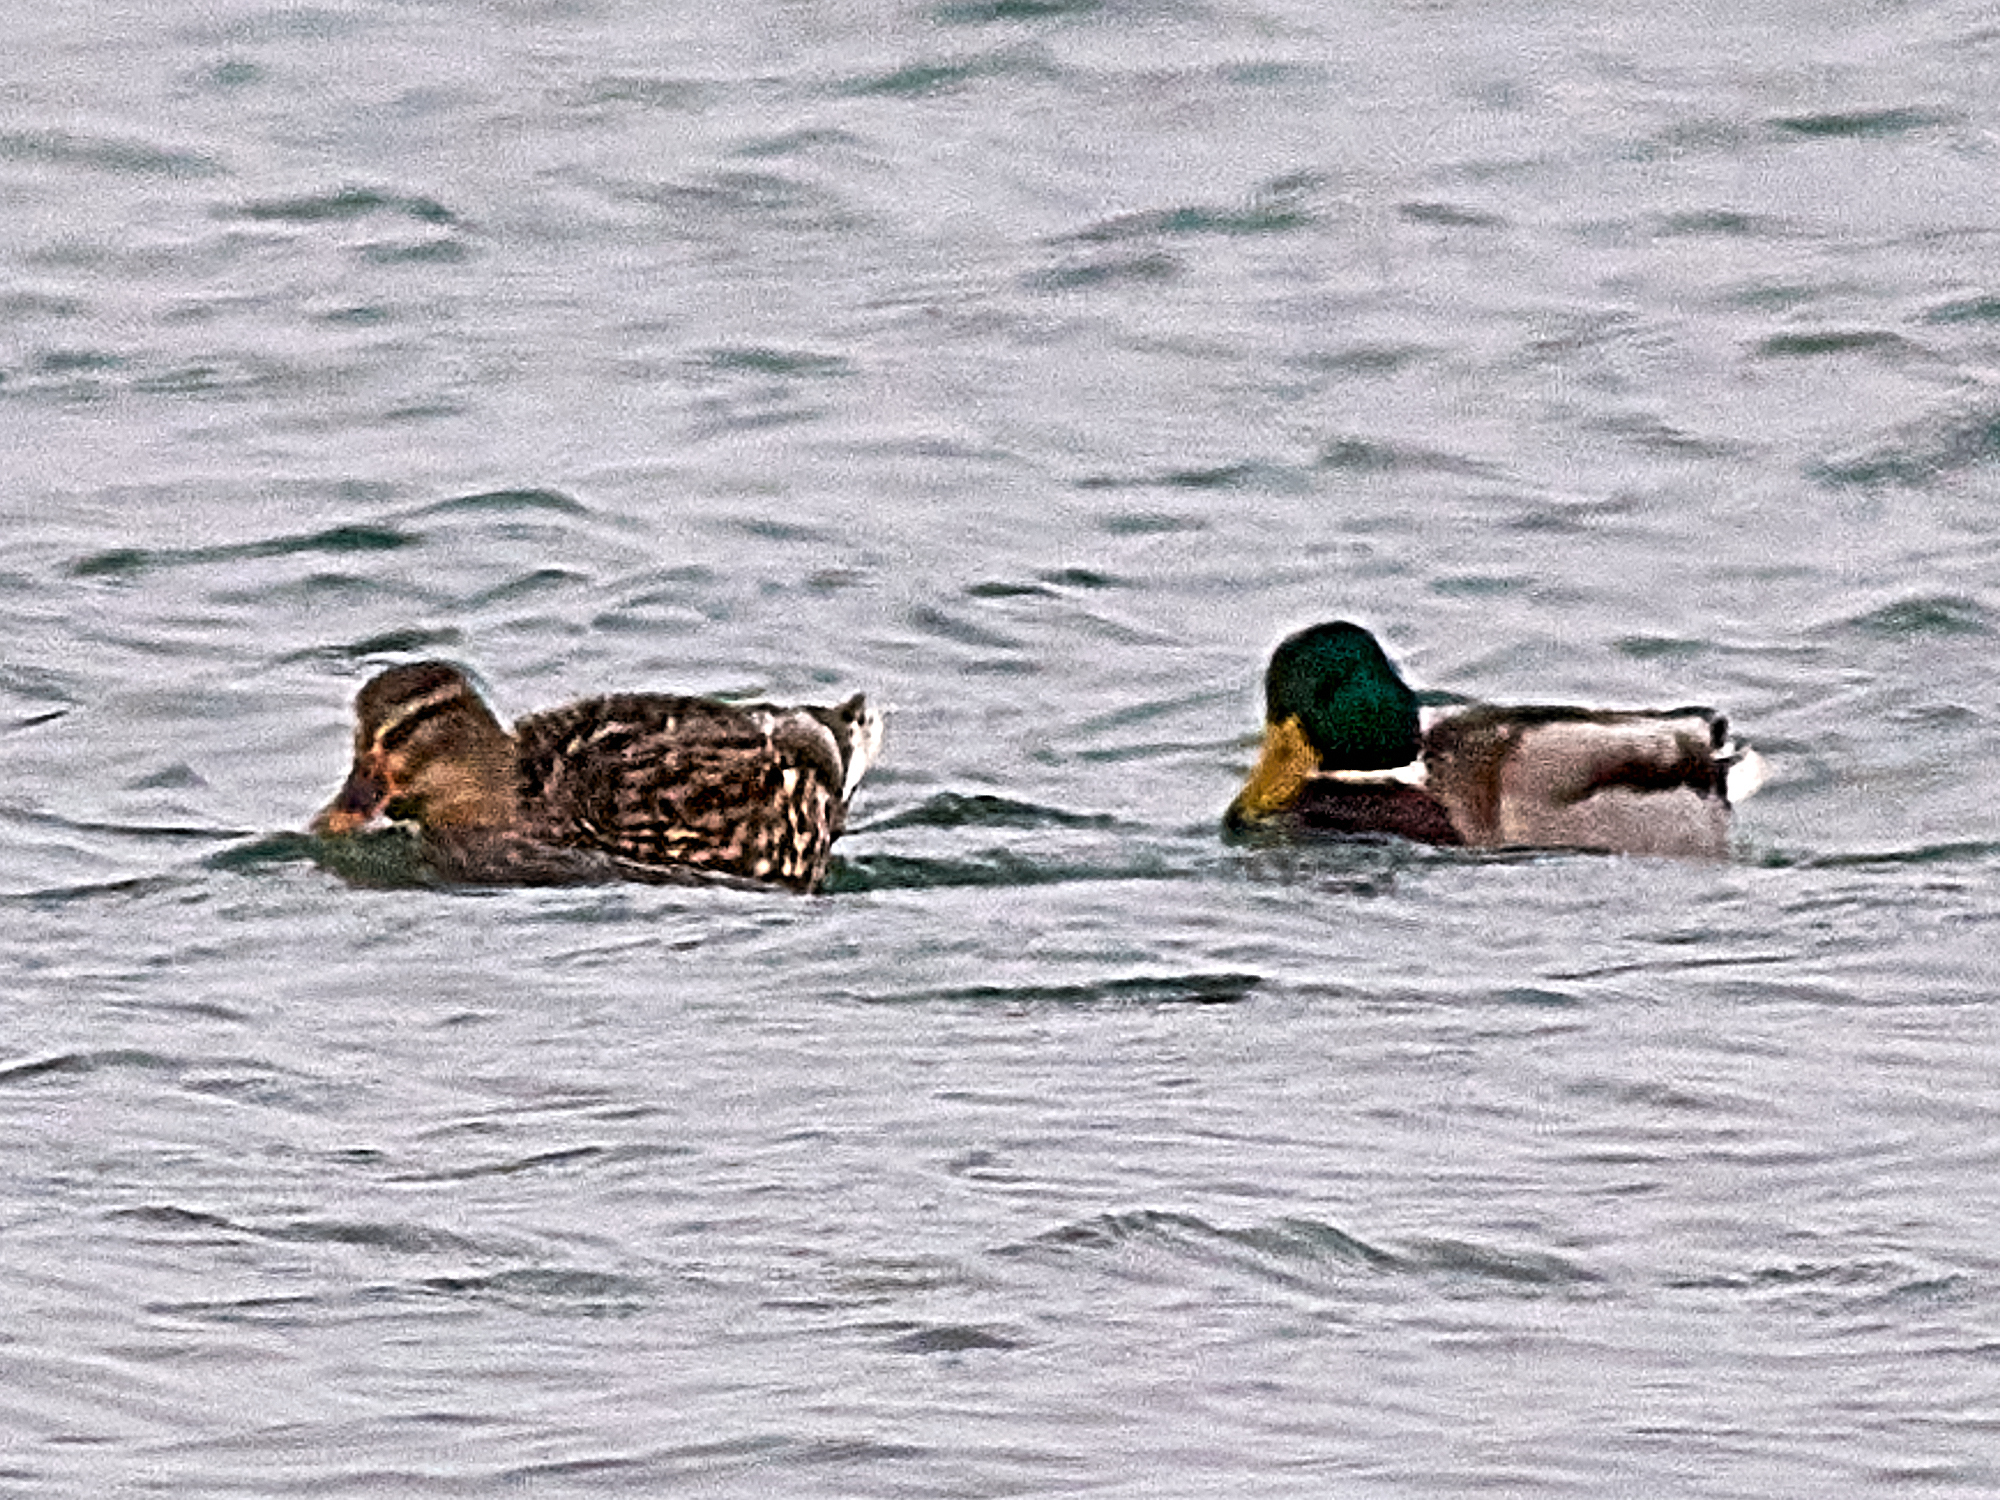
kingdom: Animalia
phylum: Chordata
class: Aves
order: Anseriformes
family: Anatidae
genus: Anas
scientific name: Anas platyrhynchos
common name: Mallard
